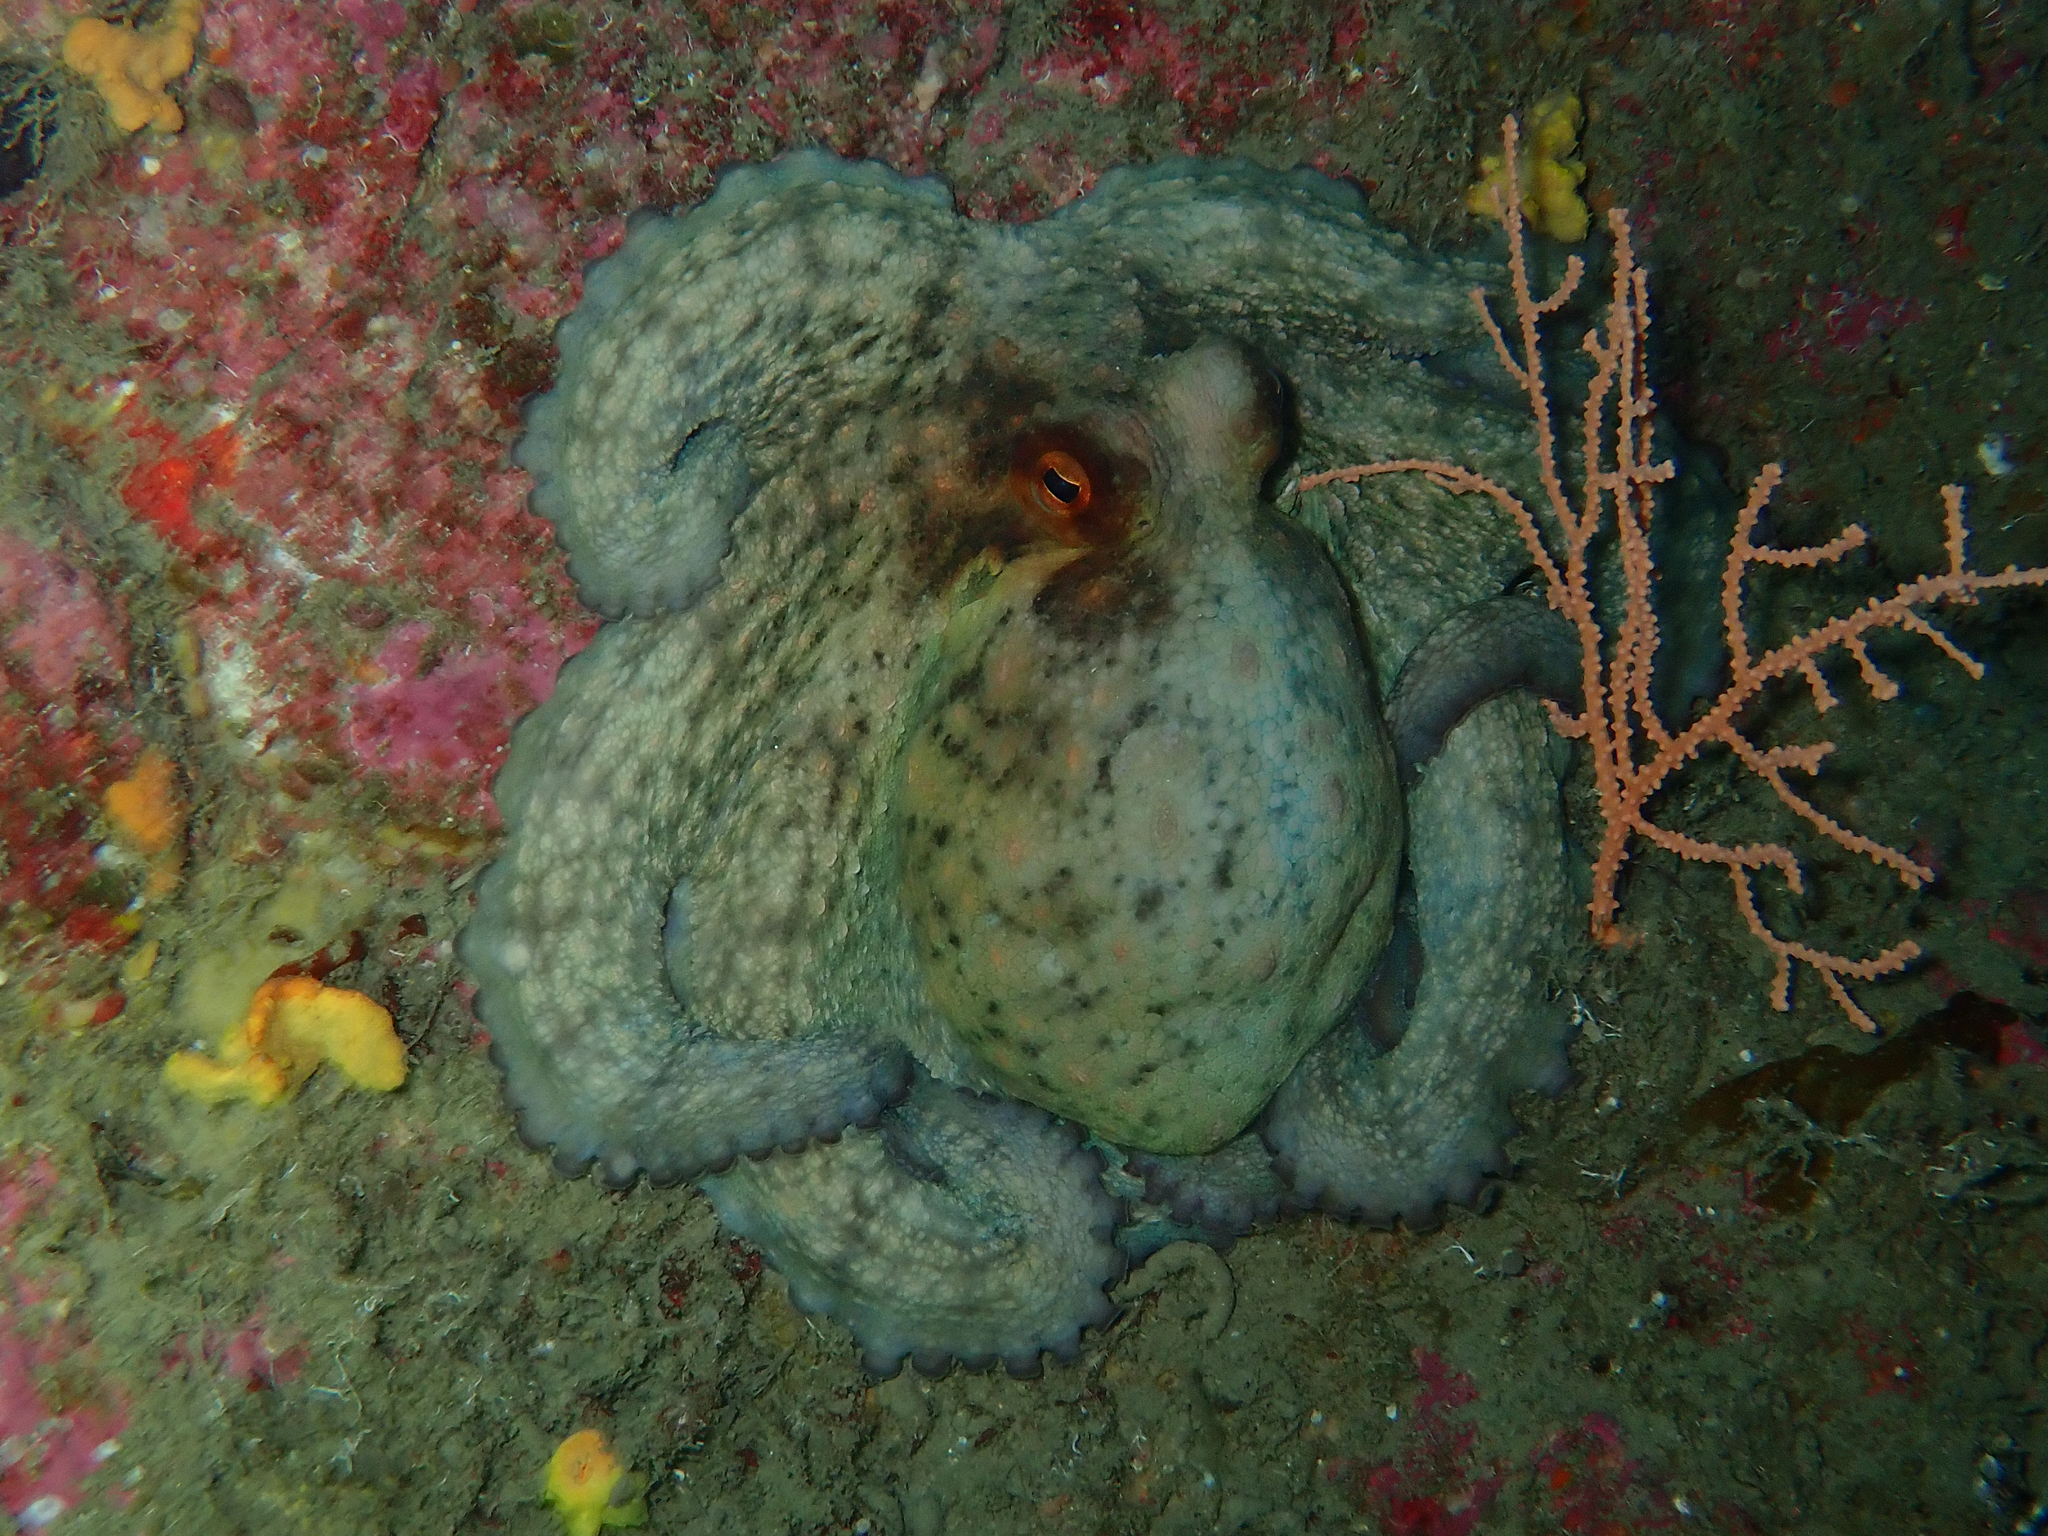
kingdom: Animalia
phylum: Mollusca
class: Cephalopoda
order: Octopoda
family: Octopodidae
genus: Octopus
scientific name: Octopus vulgaris
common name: Common octopus
